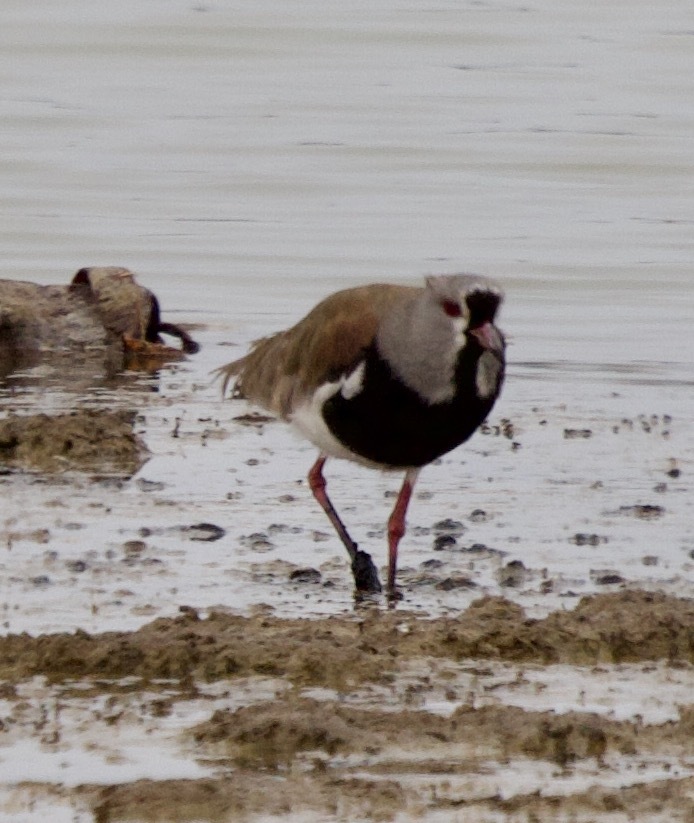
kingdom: Animalia
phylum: Chordata
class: Aves
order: Charadriiformes
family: Charadriidae
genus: Vanellus
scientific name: Vanellus chilensis
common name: Southern lapwing
